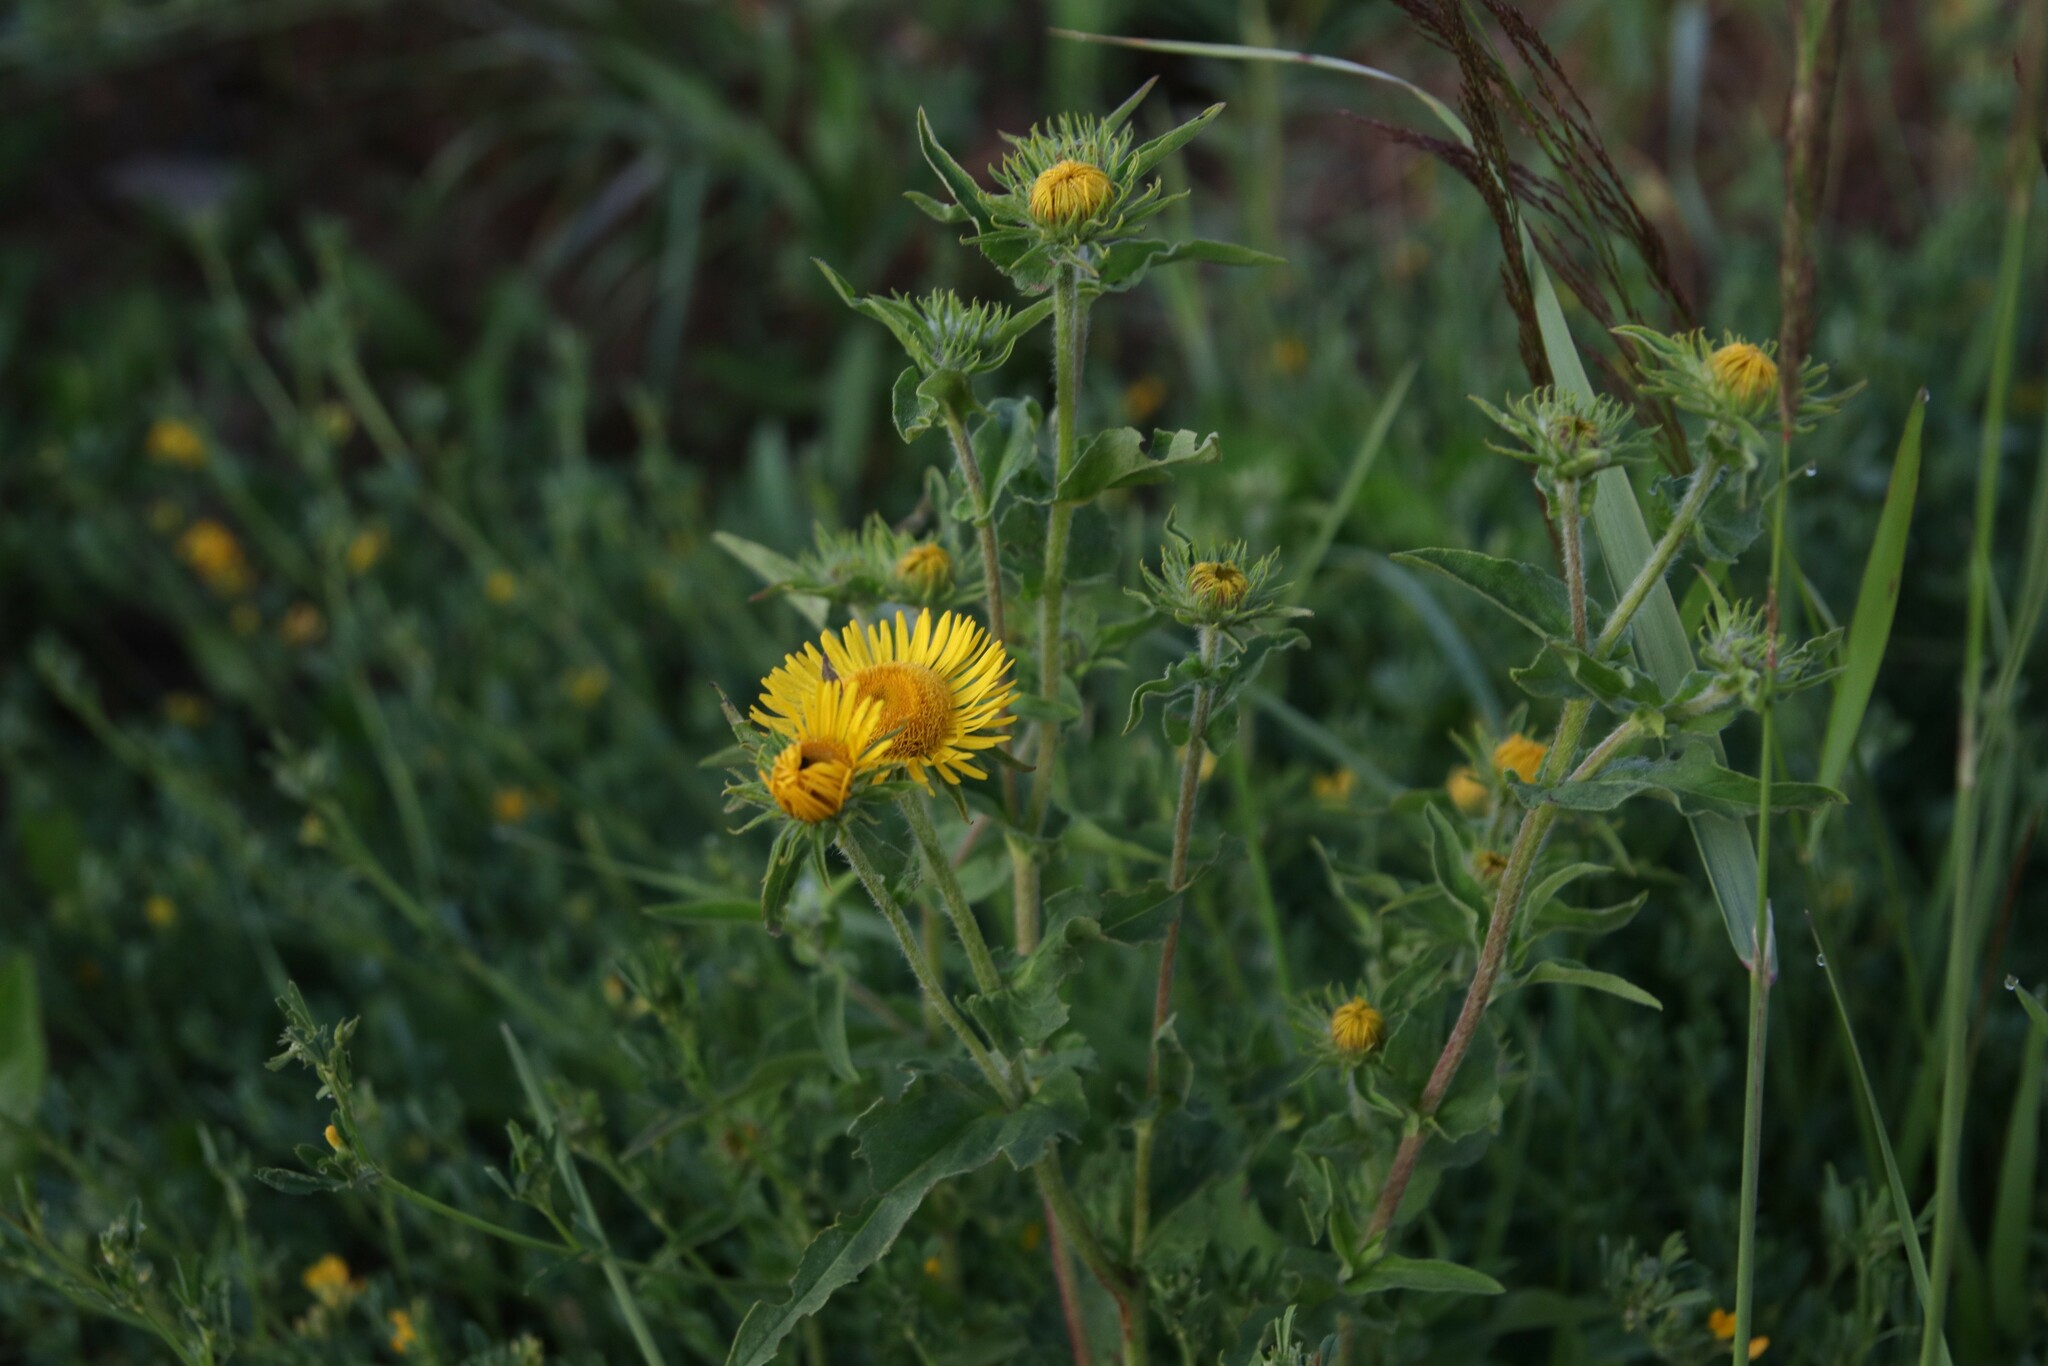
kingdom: Plantae
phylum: Tracheophyta
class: Magnoliopsida
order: Asterales
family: Asteraceae
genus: Pentanema
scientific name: Pentanema britannicum
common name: British elecampane
